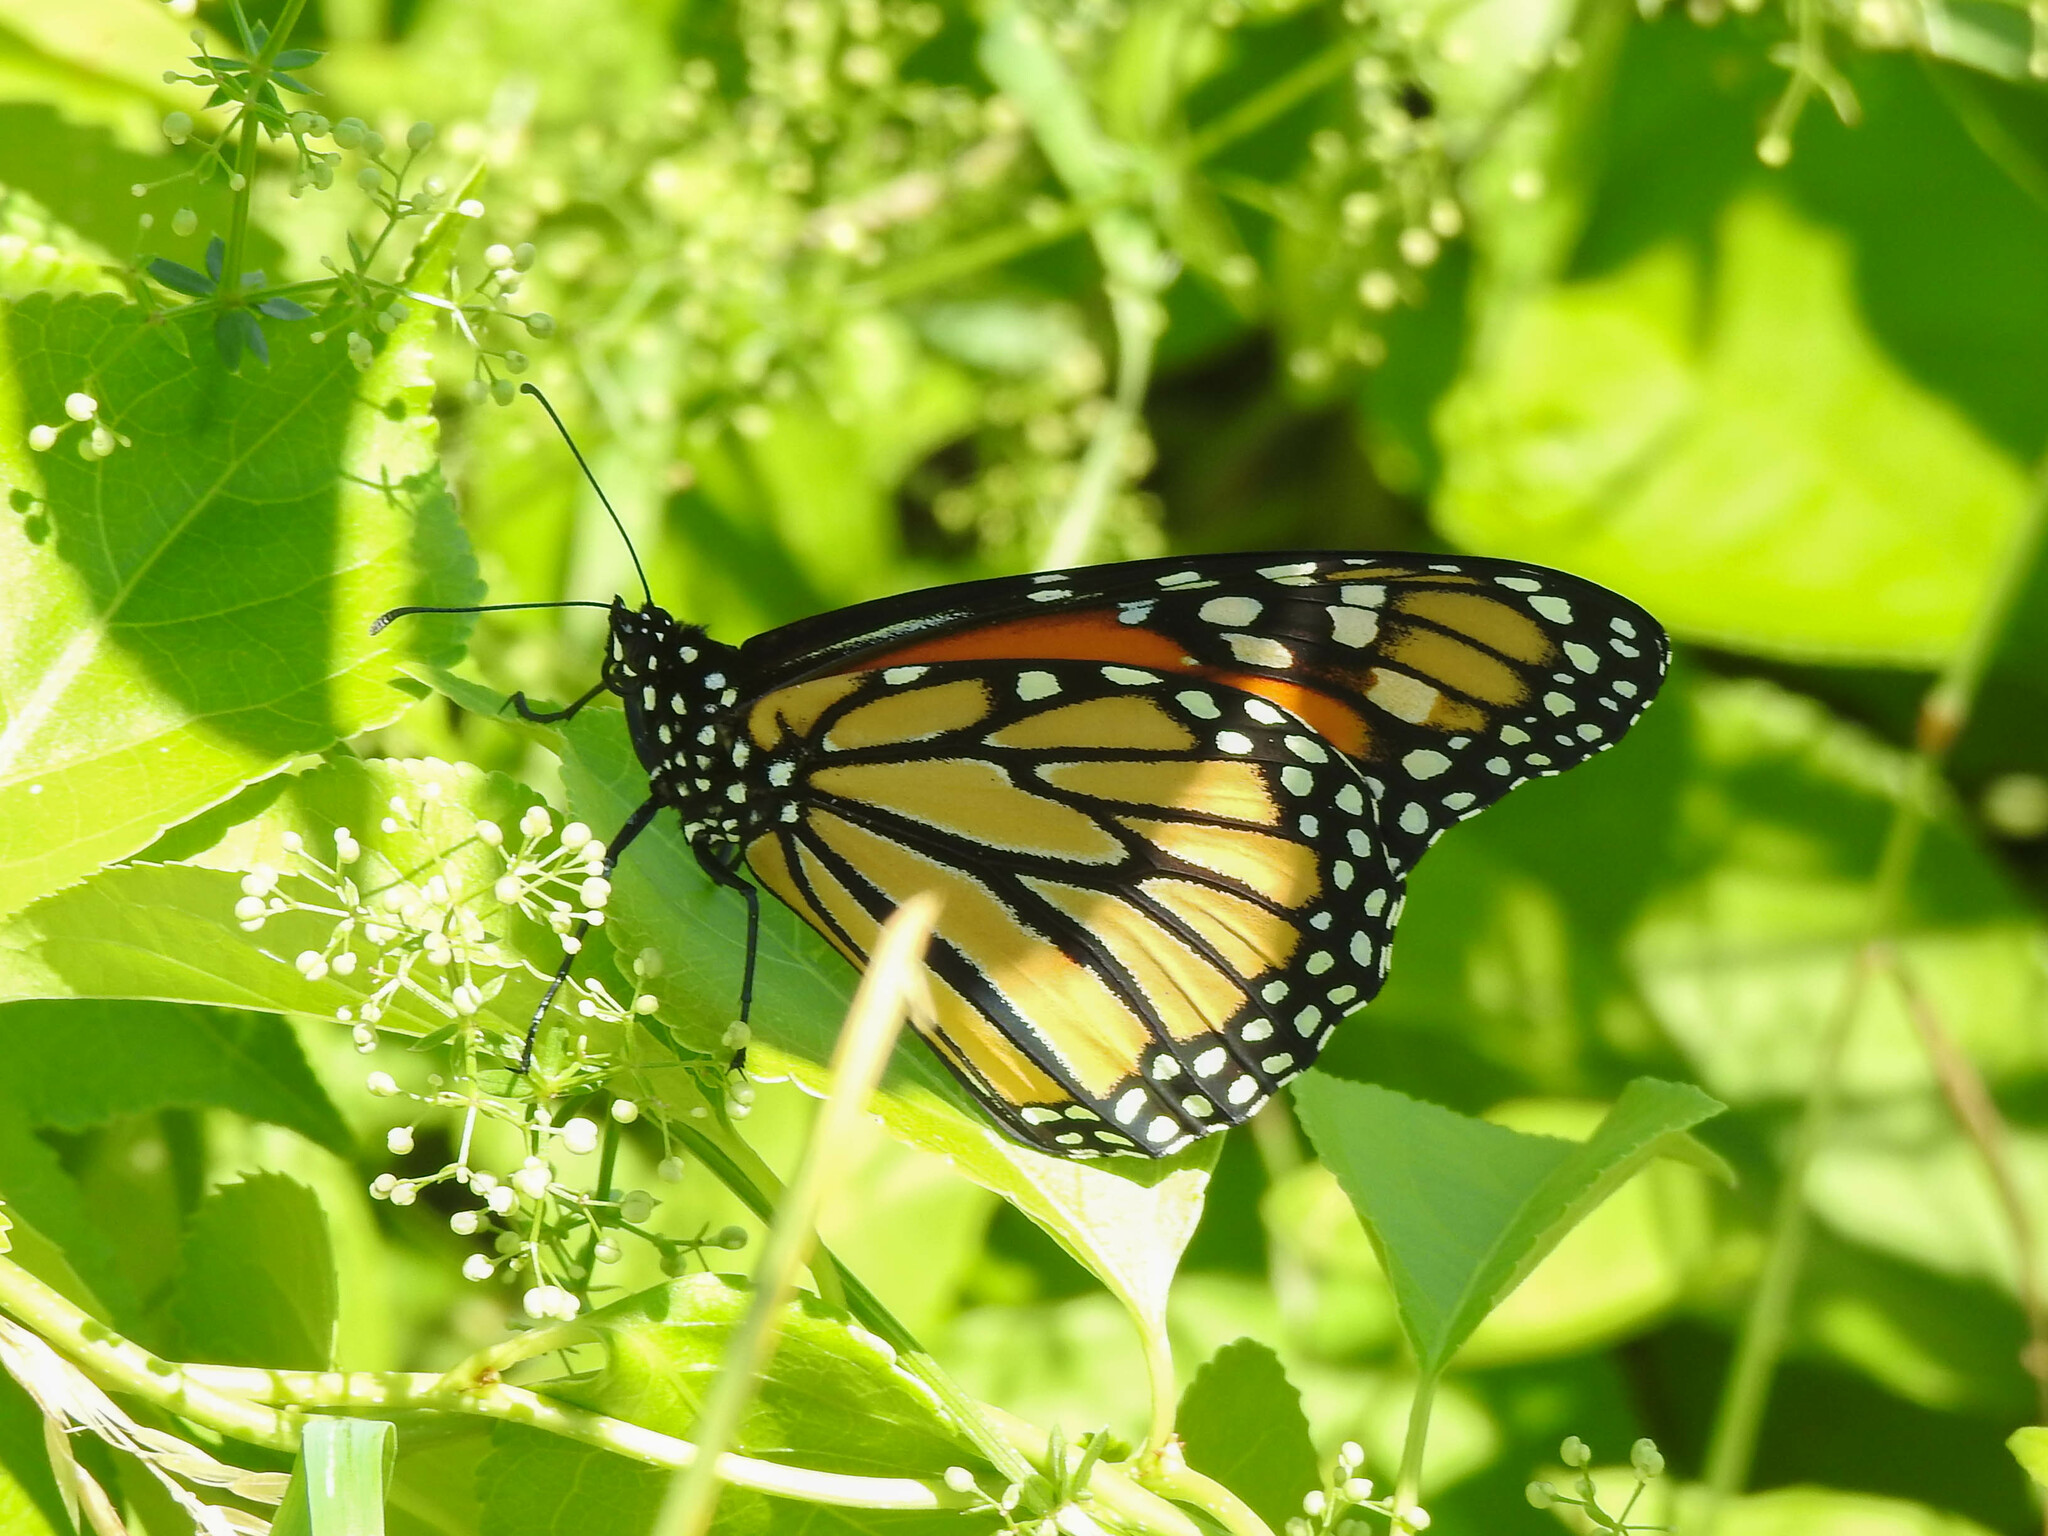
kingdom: Animalia
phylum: Arthropoda
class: Insecta
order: Lepidoptera
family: Nymphalidae
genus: Danaus
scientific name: Danaus plexippus
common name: Monarch
